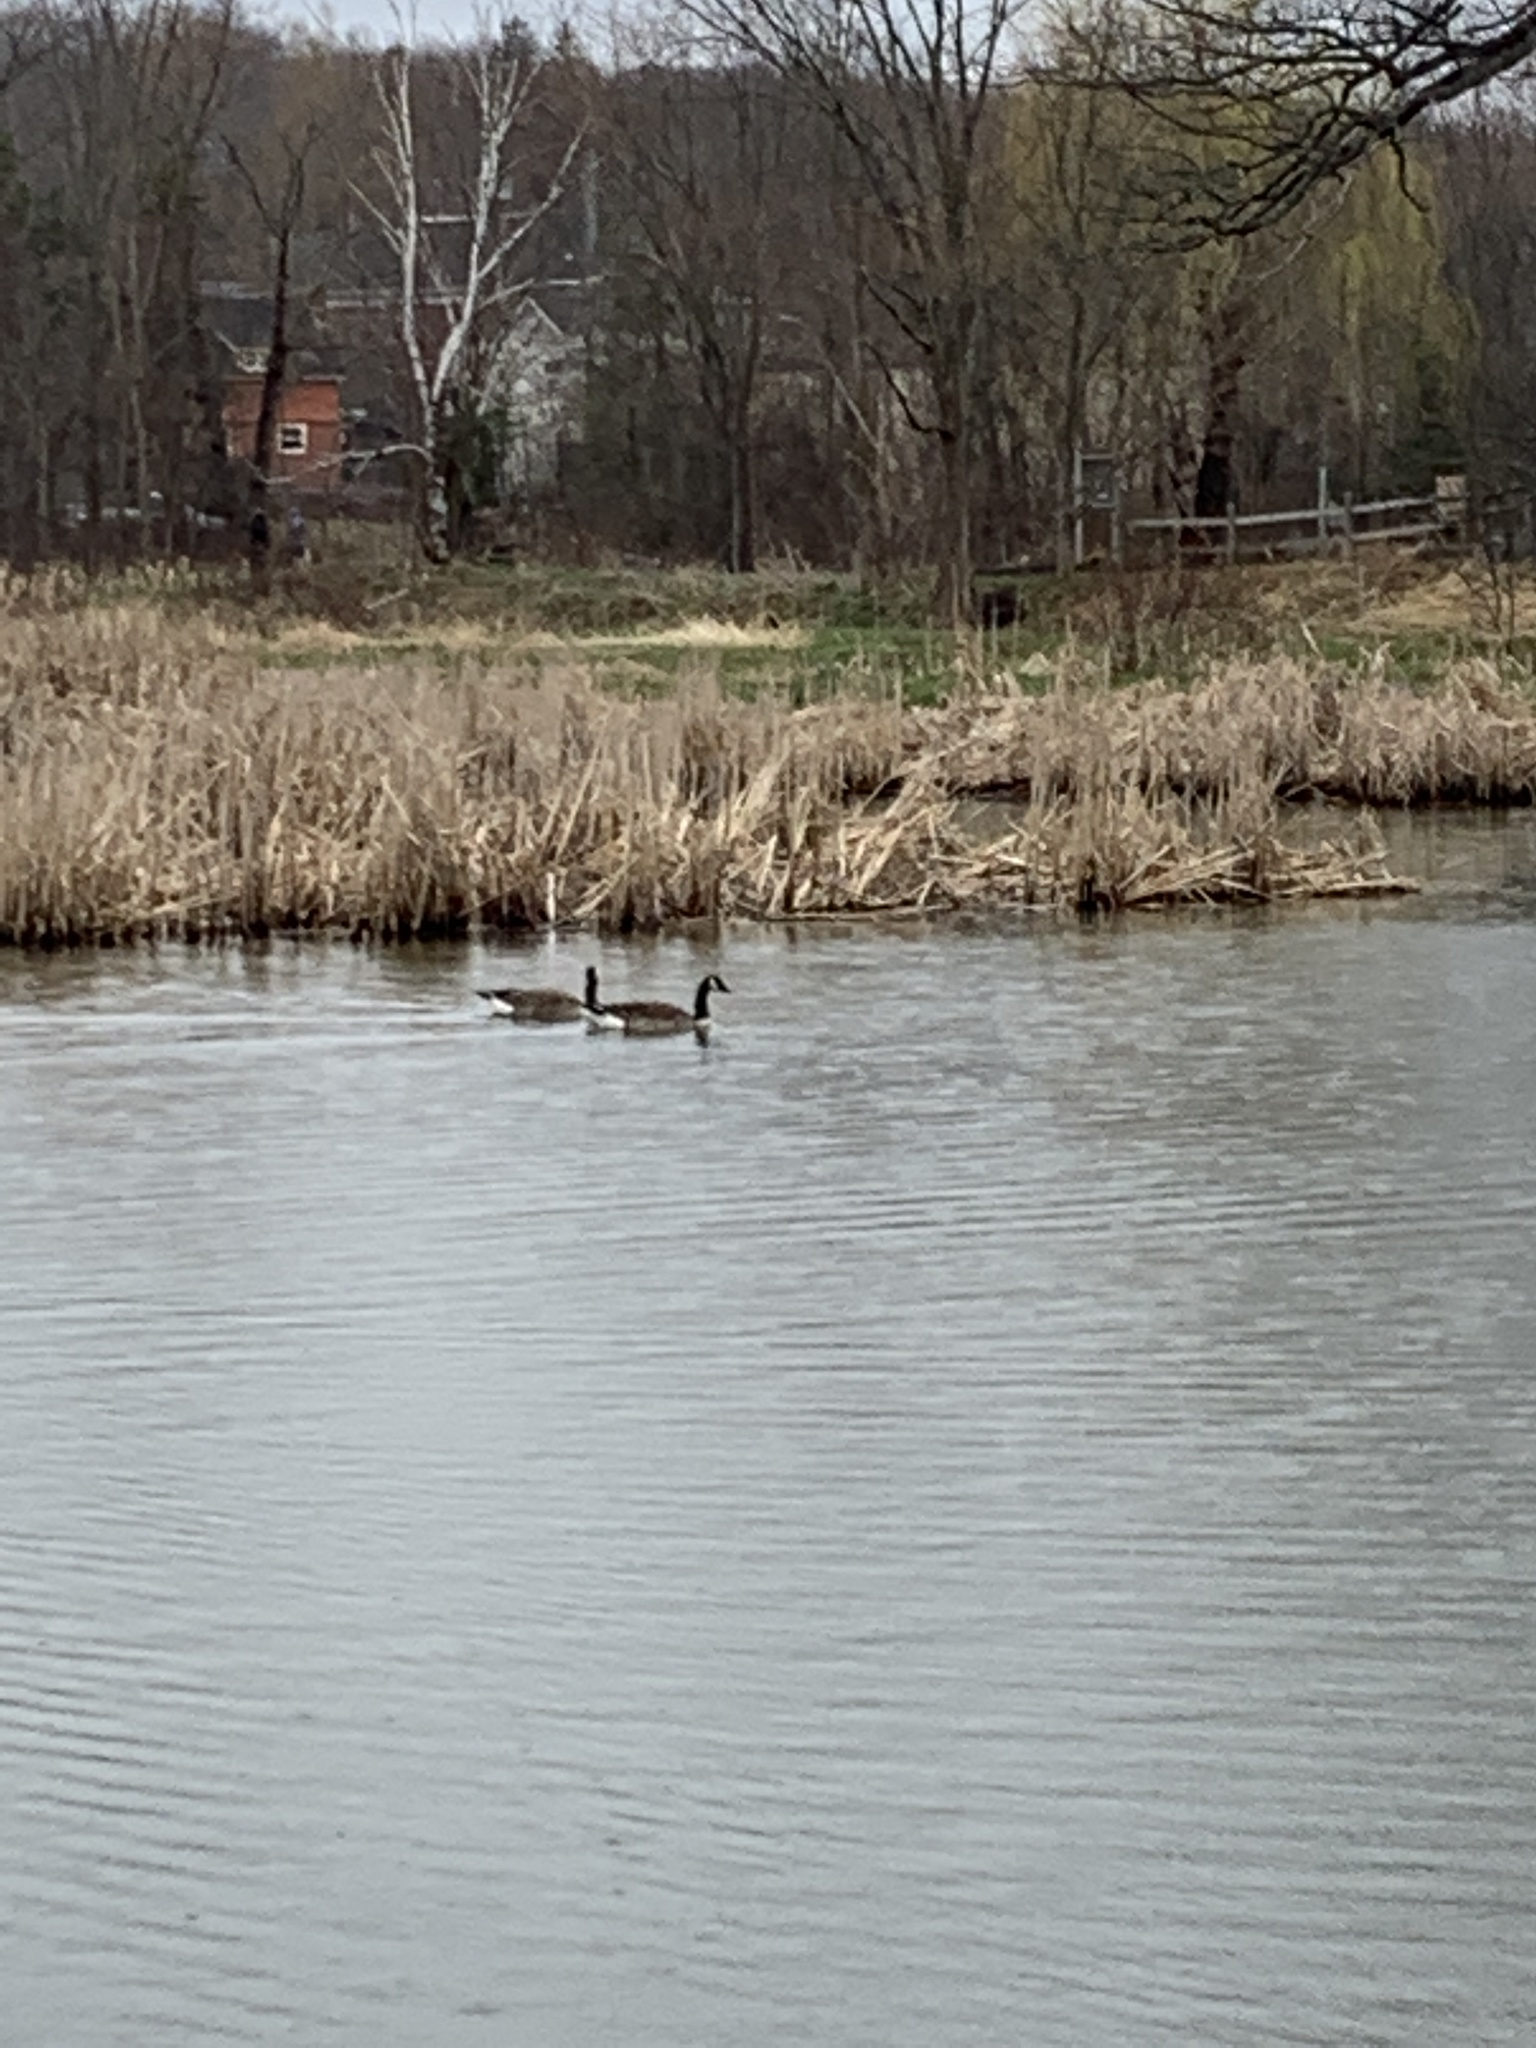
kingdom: Animalia
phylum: Chordata
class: Aves
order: Anseriformes
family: Anatidae
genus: Branta
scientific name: Branta canadensis
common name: Canada goose
